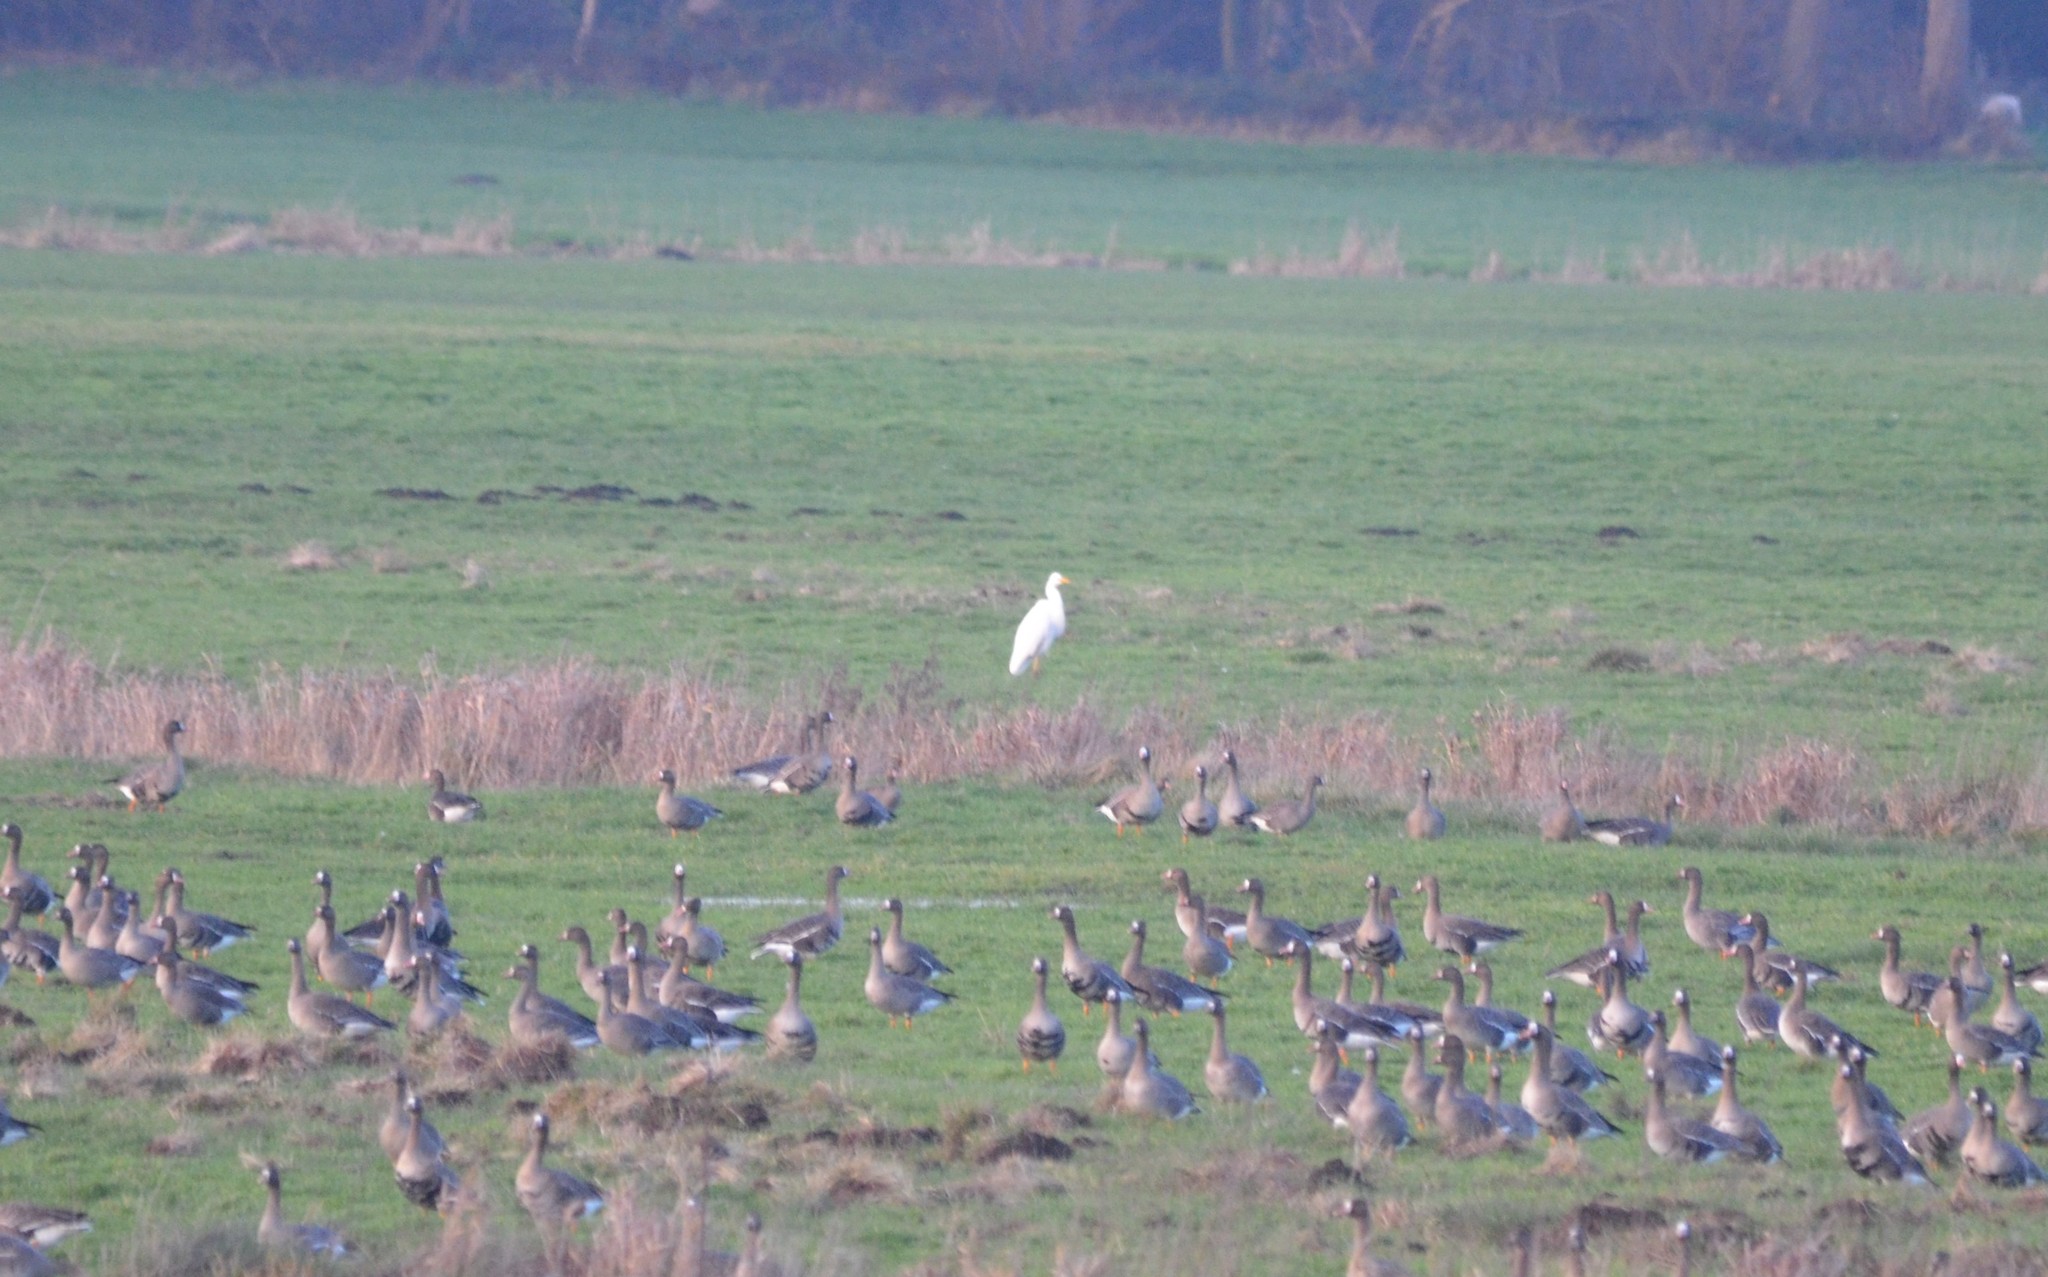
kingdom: Animalia
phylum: Chordata
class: Aves
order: Pelecaniformes
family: Ardeidae
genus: Ardea
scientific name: Ardea alba
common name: Great egret
